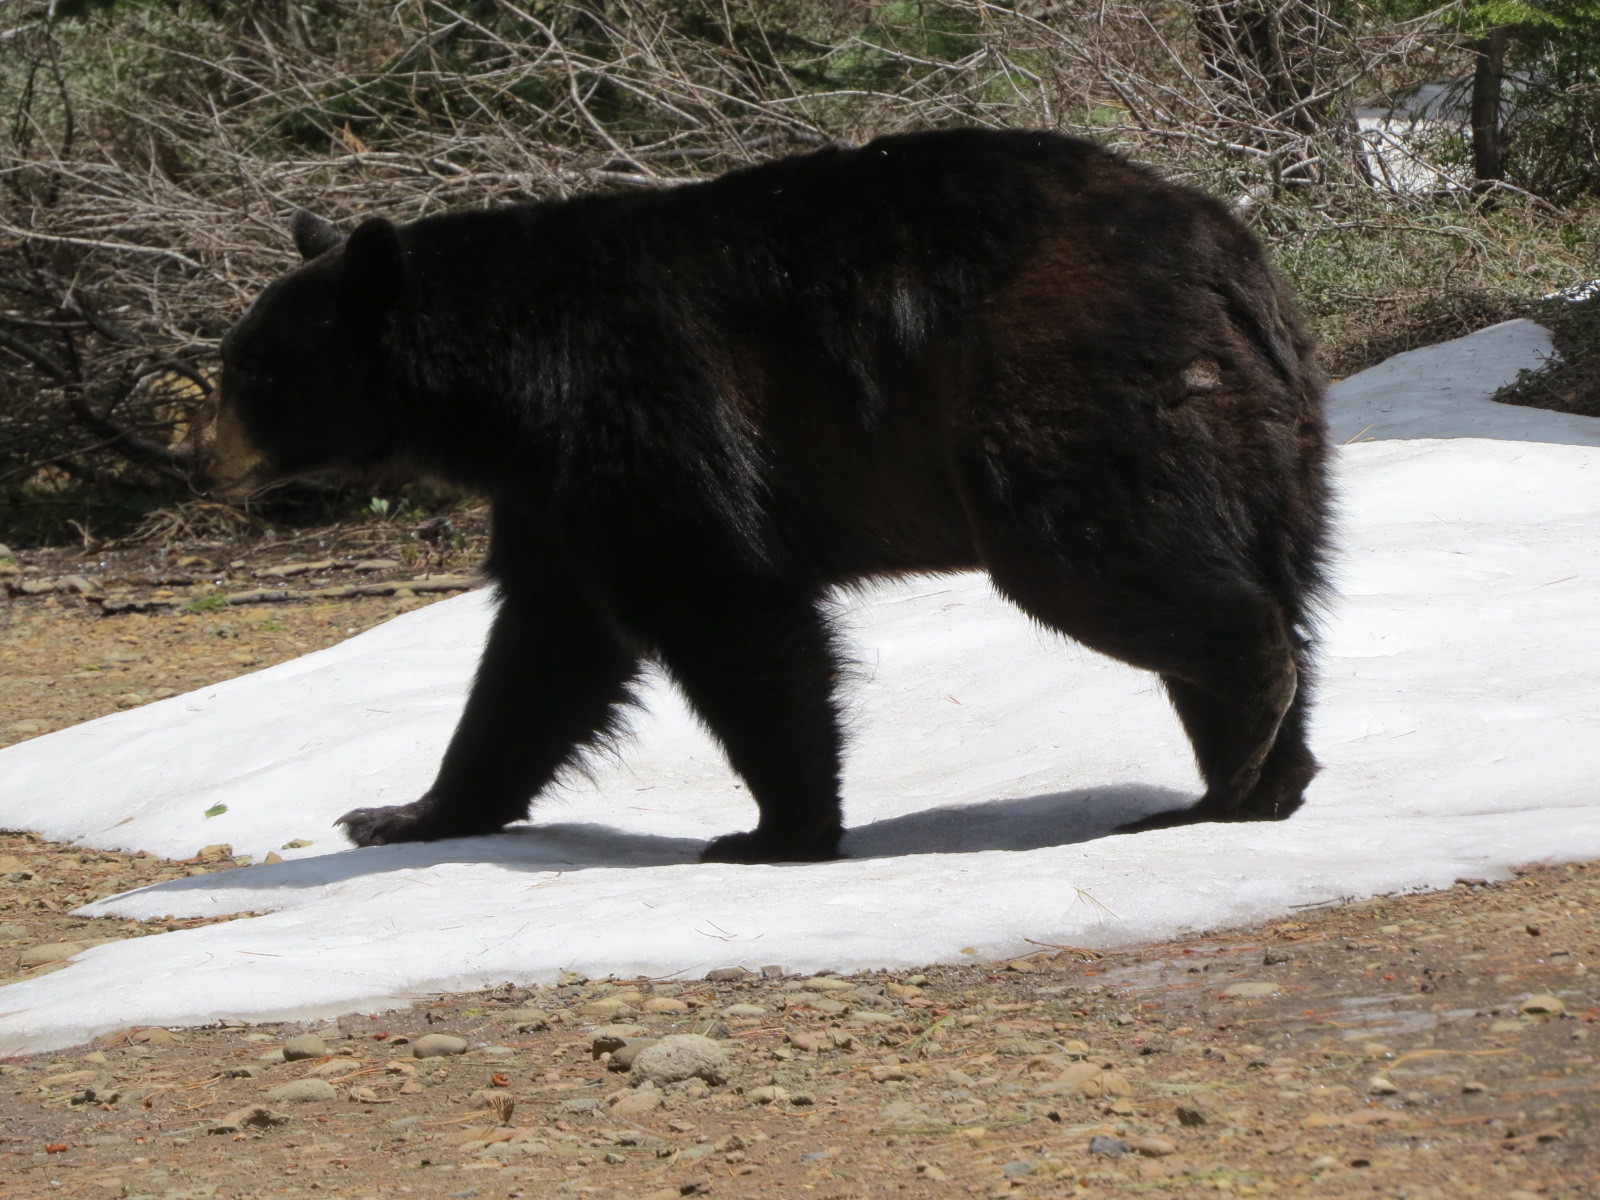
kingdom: Animalia
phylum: Chordata
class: Mammalia
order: Carnivora
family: Ursidae
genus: Ursus
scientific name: Ursus americanus
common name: American black bear
